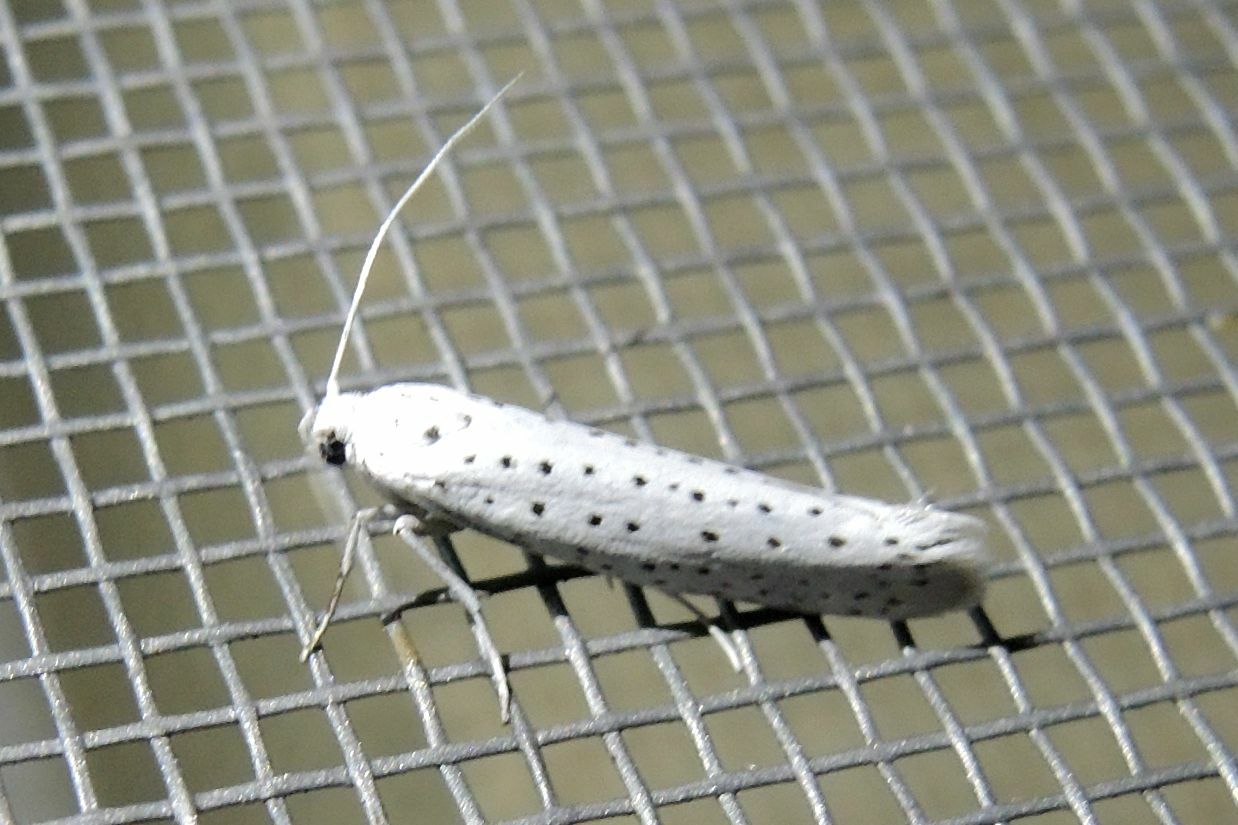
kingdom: Animalia
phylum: Arthropoda
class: Insecta
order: Lepidoptera
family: Yponomeutidae
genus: Yponomeuta
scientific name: Yponomeuta evonymella
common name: Bird-cherry ermine
